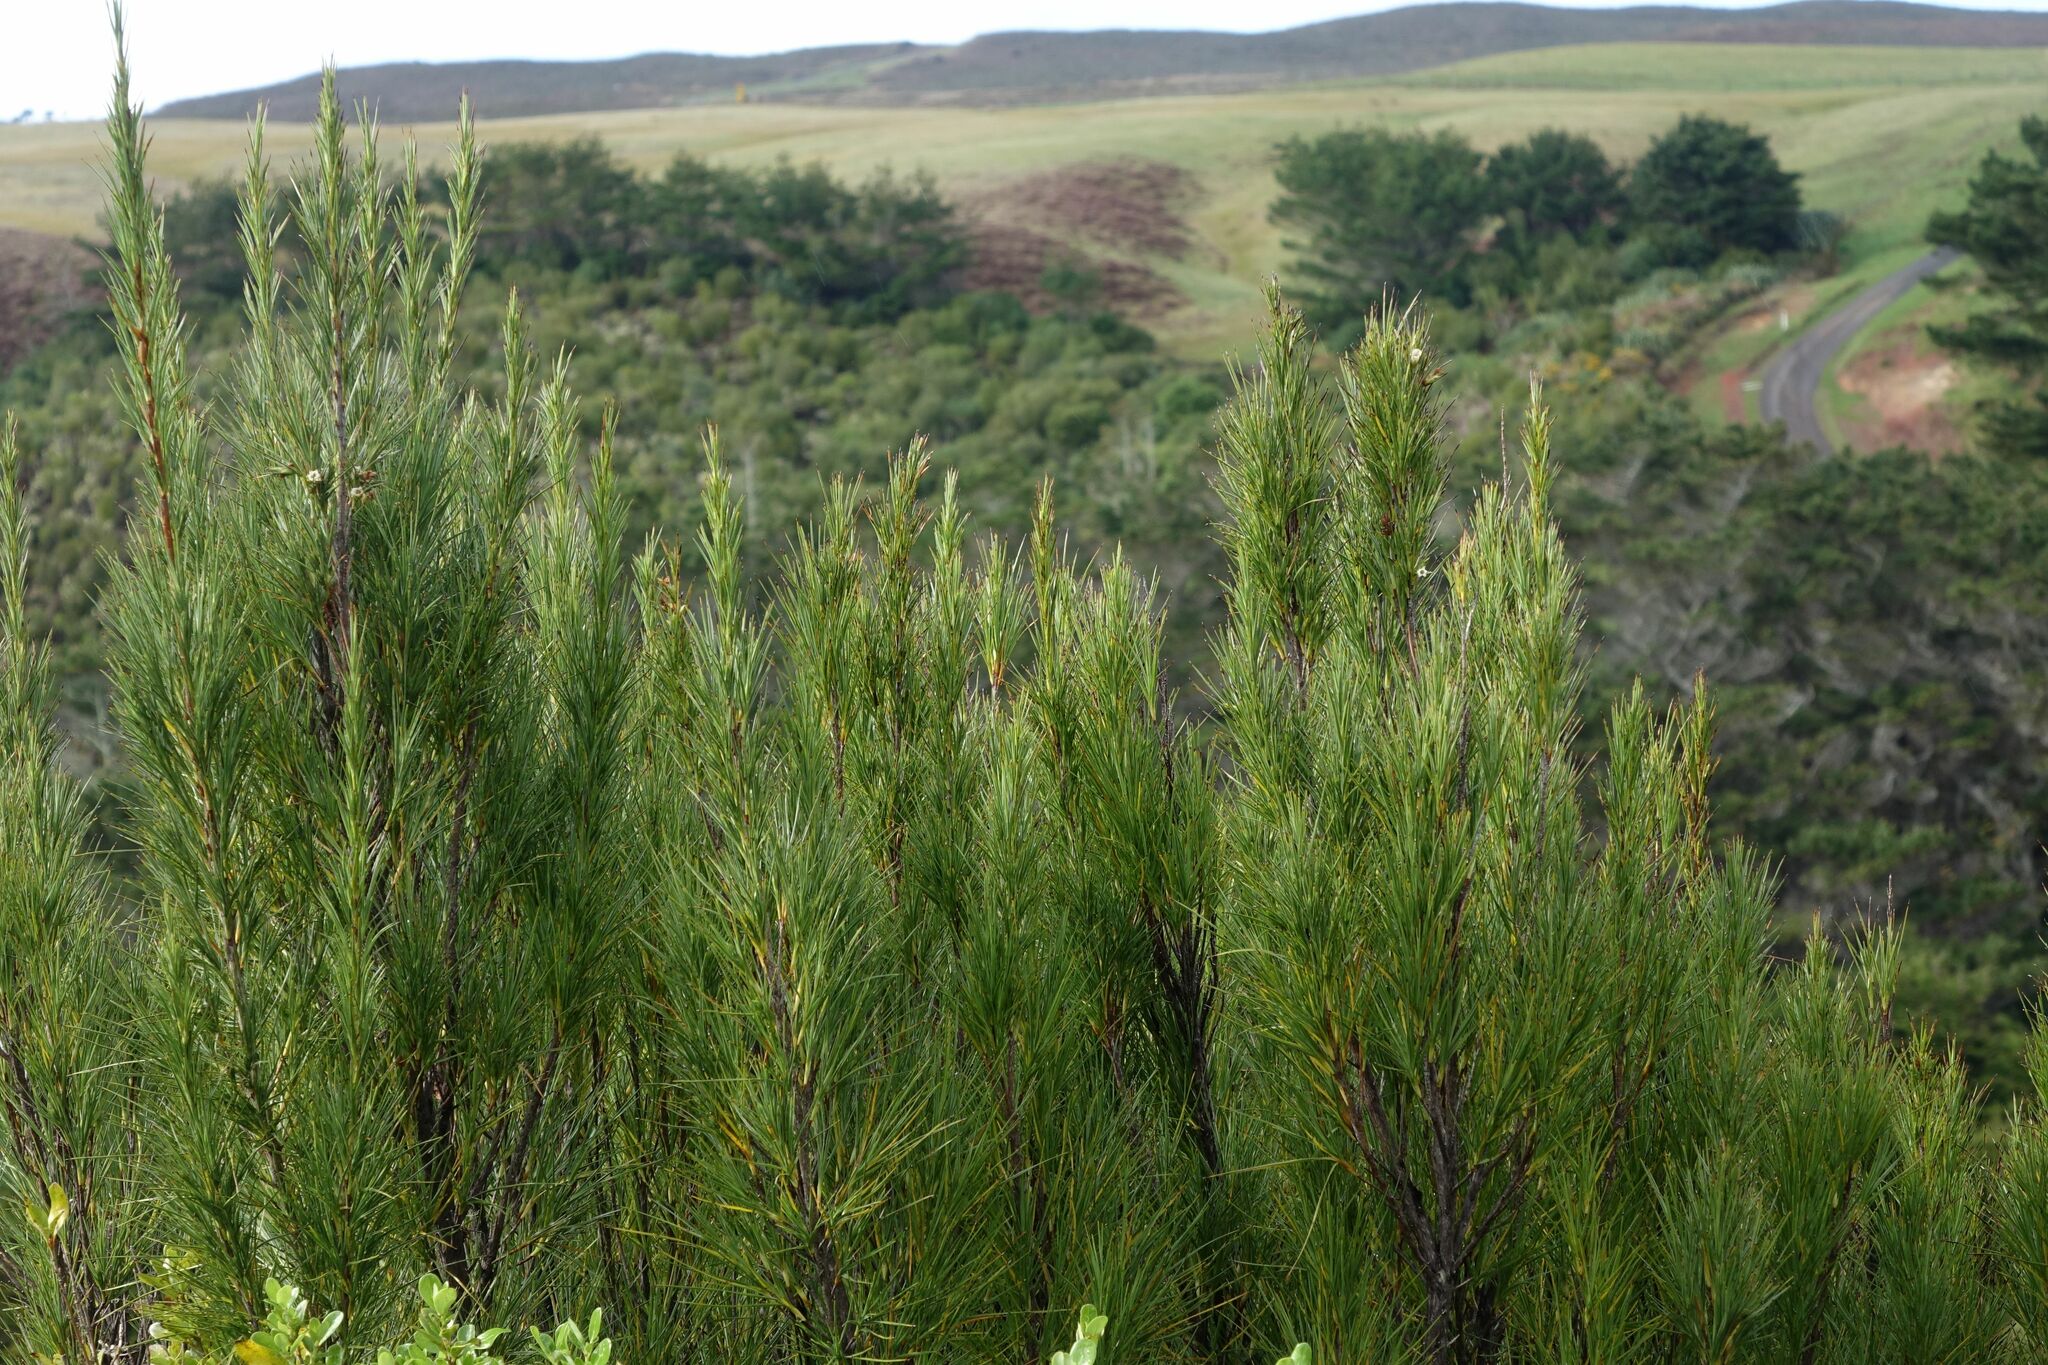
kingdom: Plantae
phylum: Tracheophyta
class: Magnoliopsida
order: Ericales
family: Ericaceae
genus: Dracophyllum
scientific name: Dracophyllum arboreum
